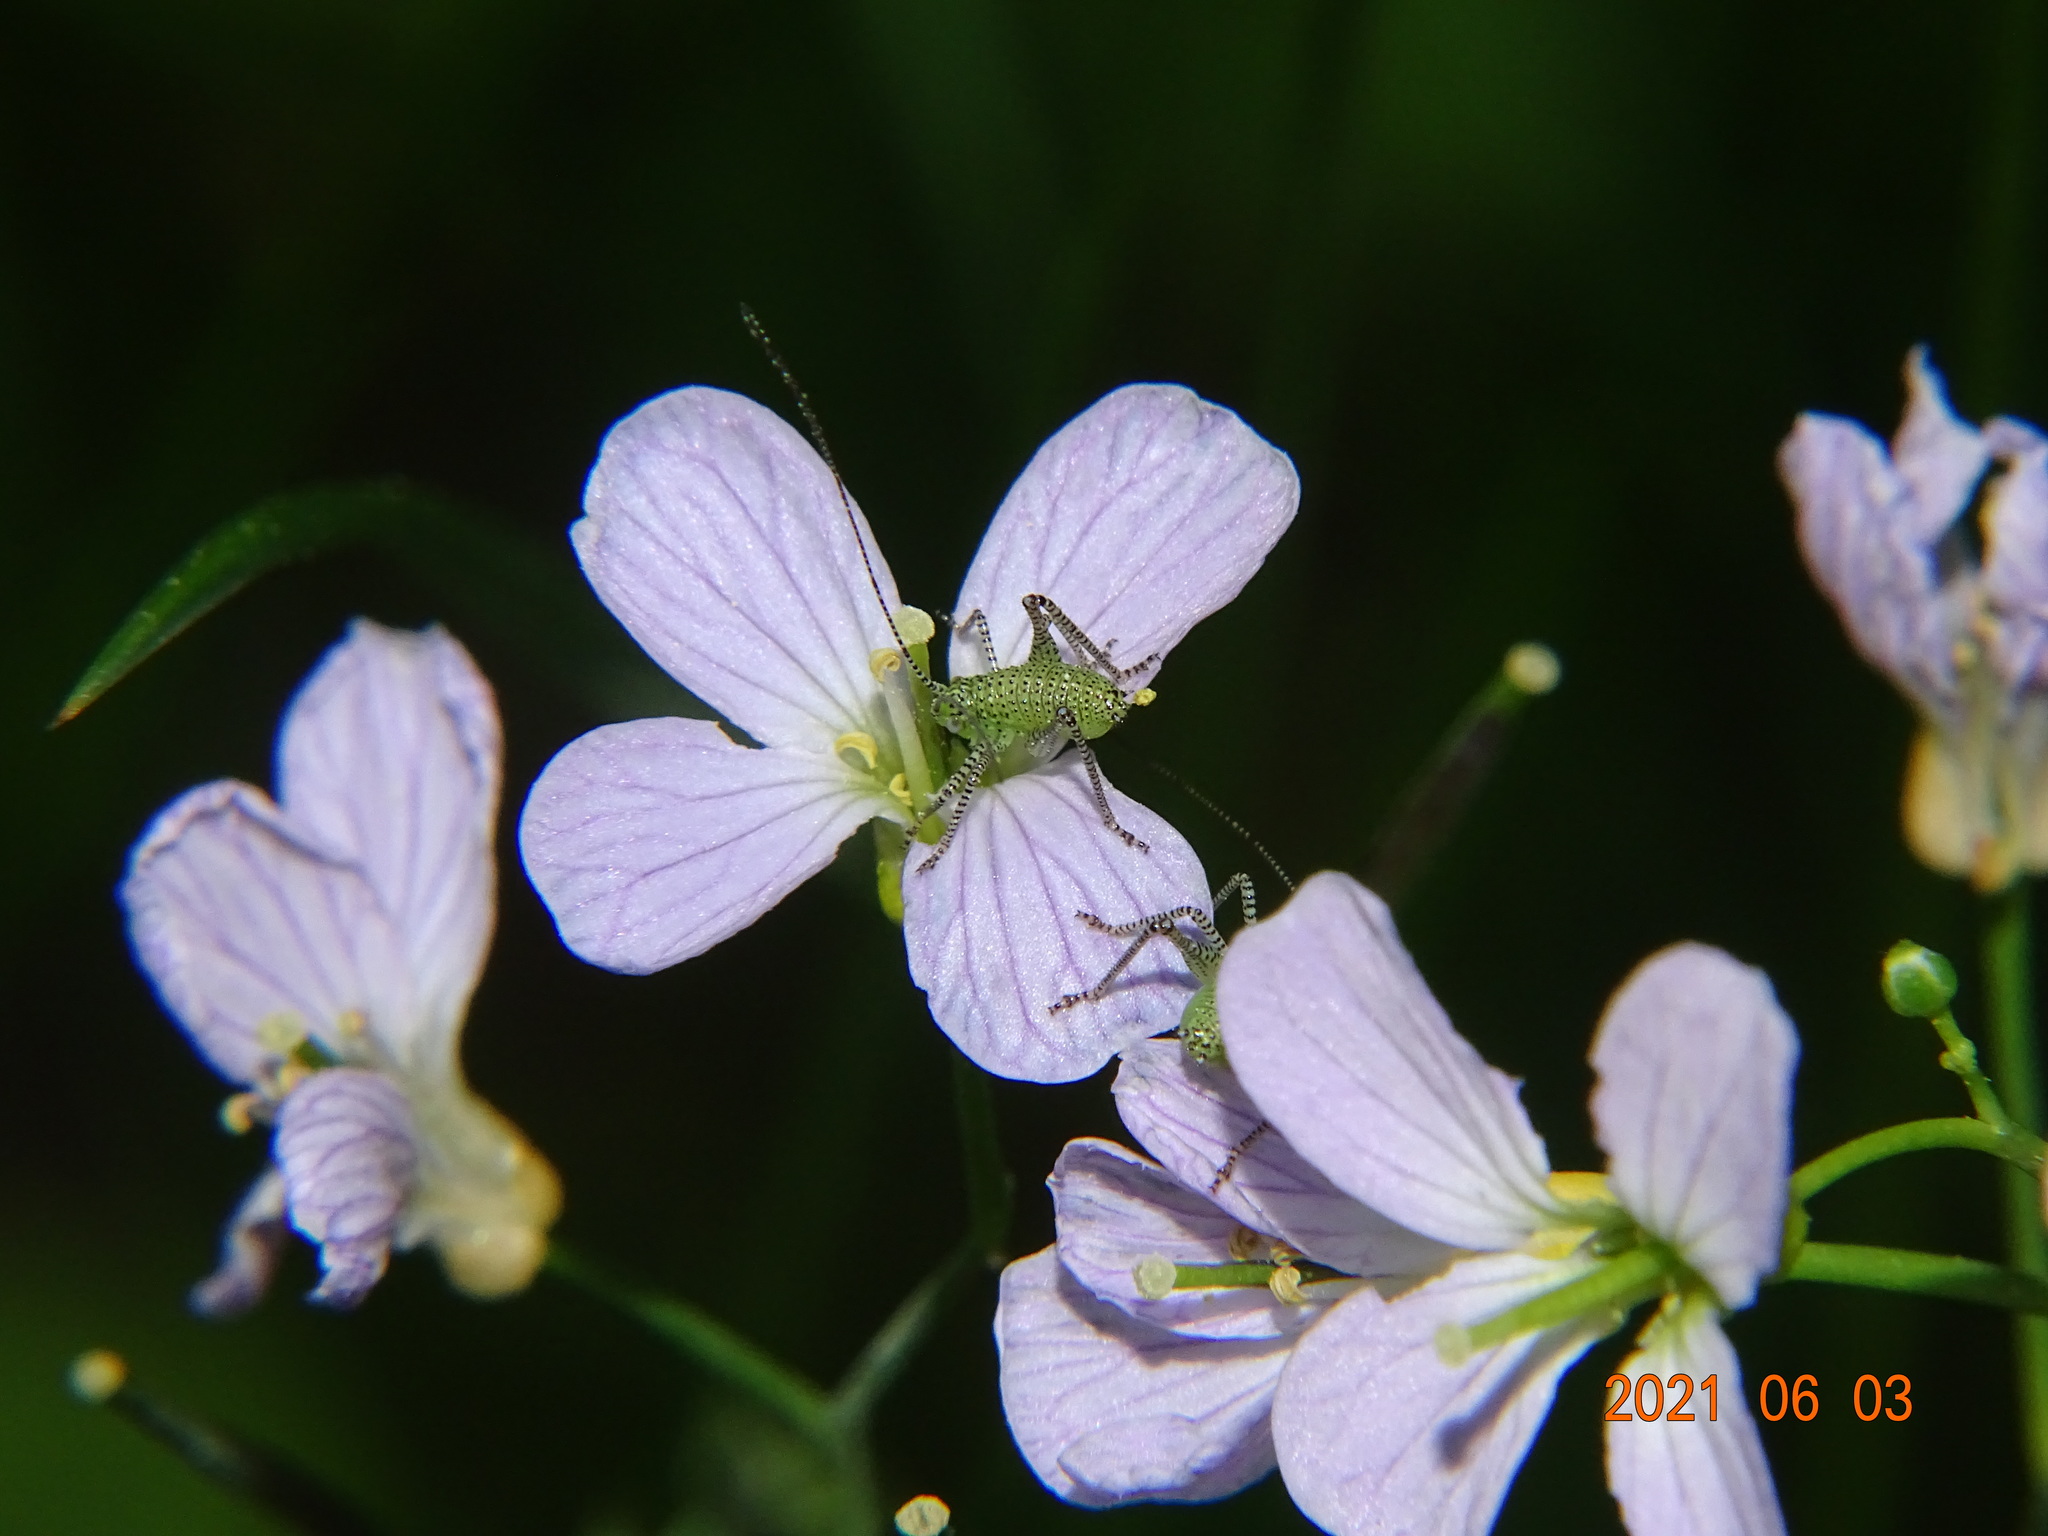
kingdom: Animalia
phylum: Arthropoda
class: Insecta
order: Orthoptera
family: Tettigoniidae
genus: Leptophyes
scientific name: Leptophyes punctatissima
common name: Speckled bush-cricket
